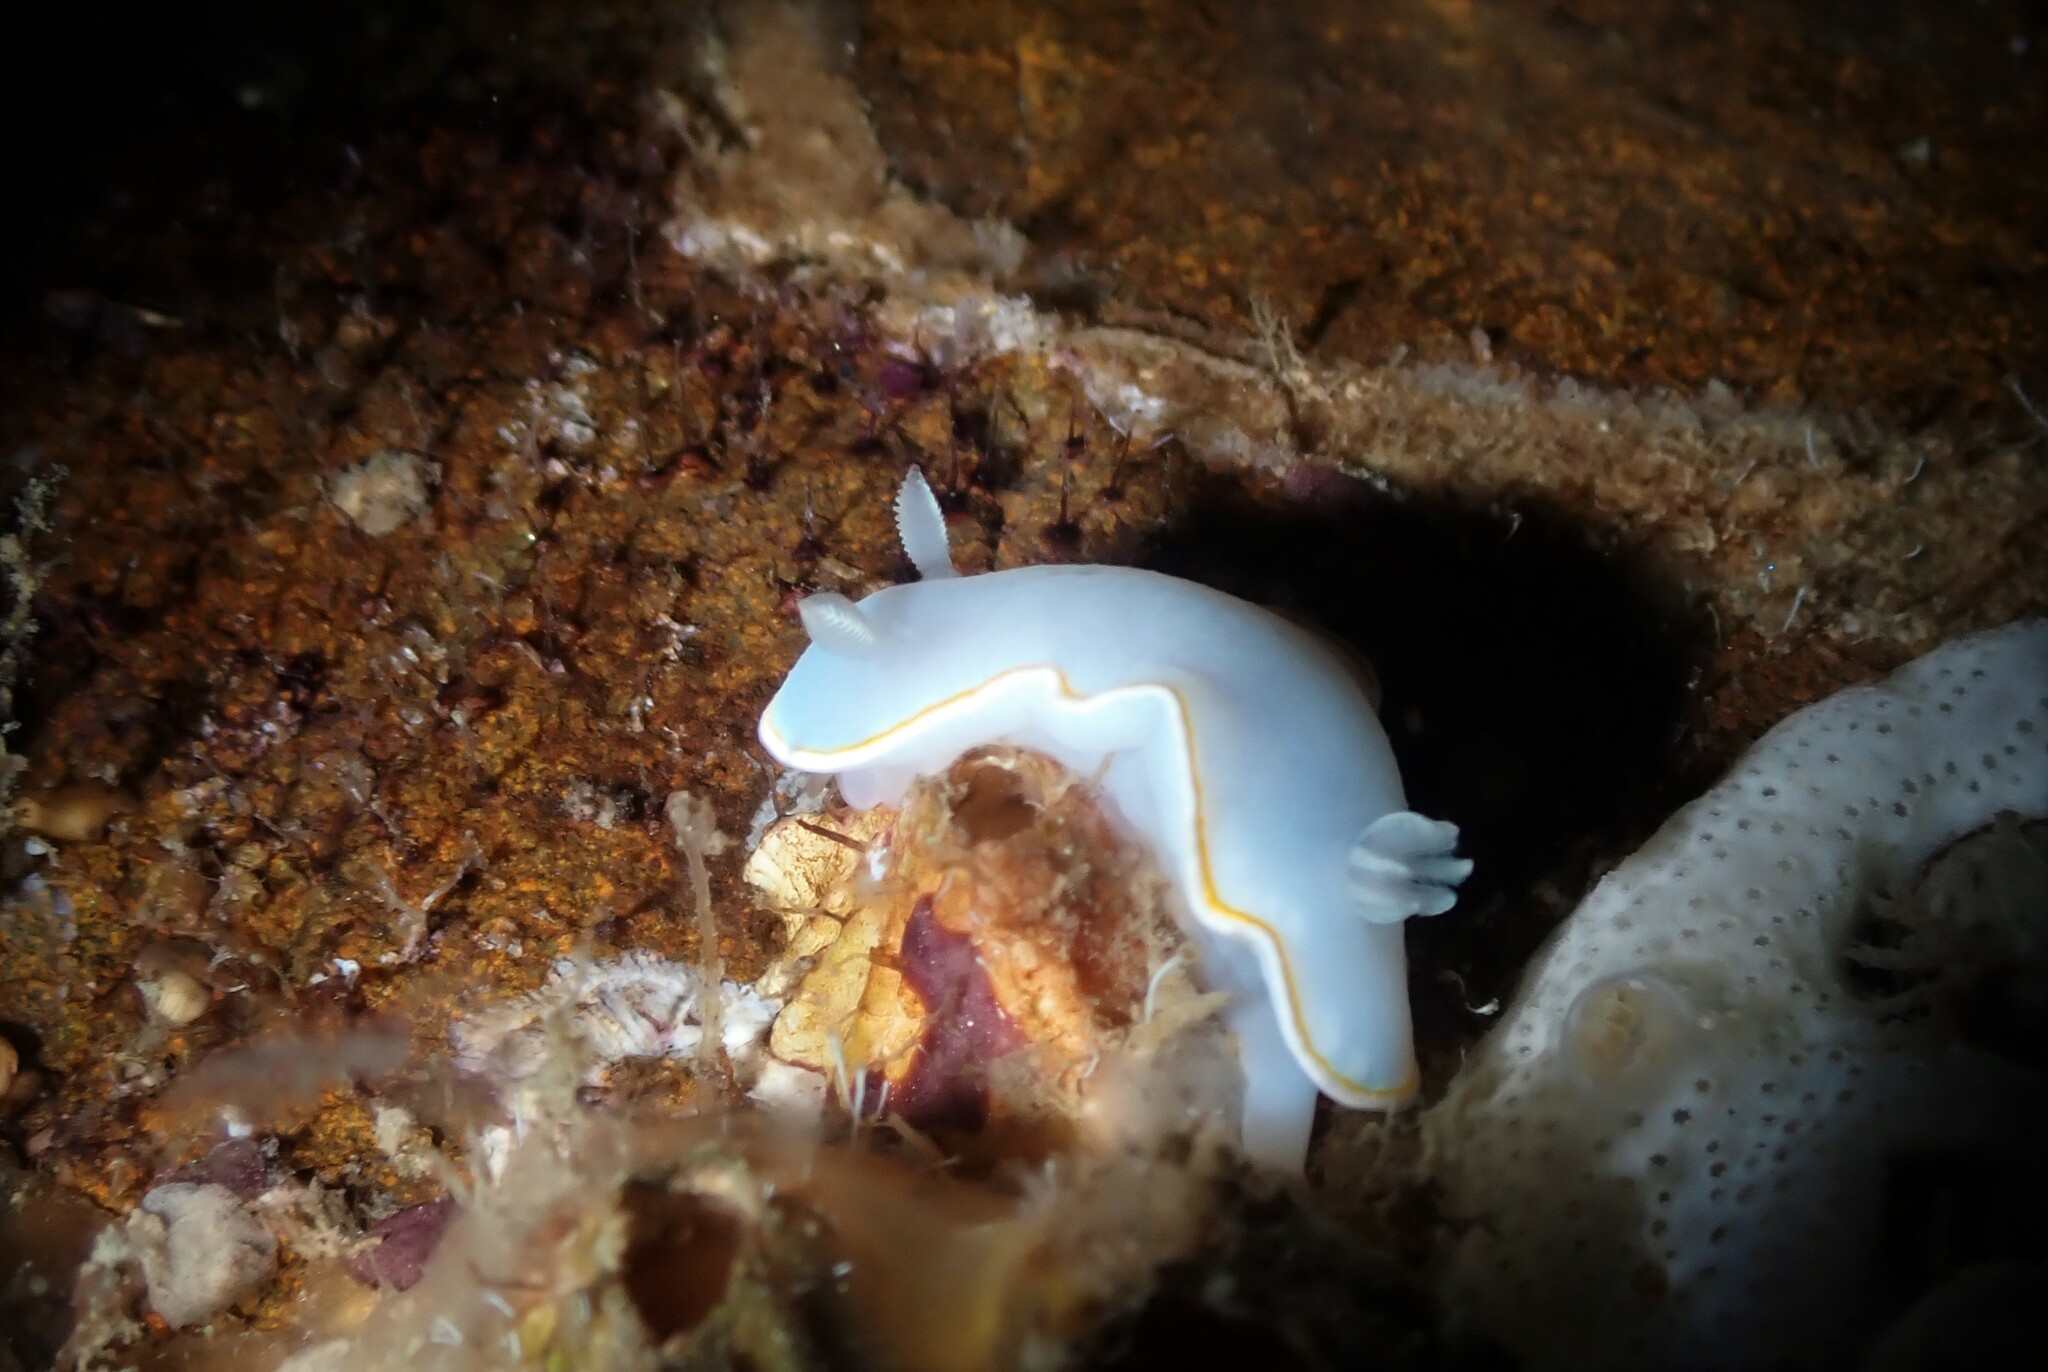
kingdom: Animalia
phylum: Mollusca
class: Gastropoda
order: Nudibranchia
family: Chromodorididae
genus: Goniobranchus
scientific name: Goniobranchus aureomarginatus
